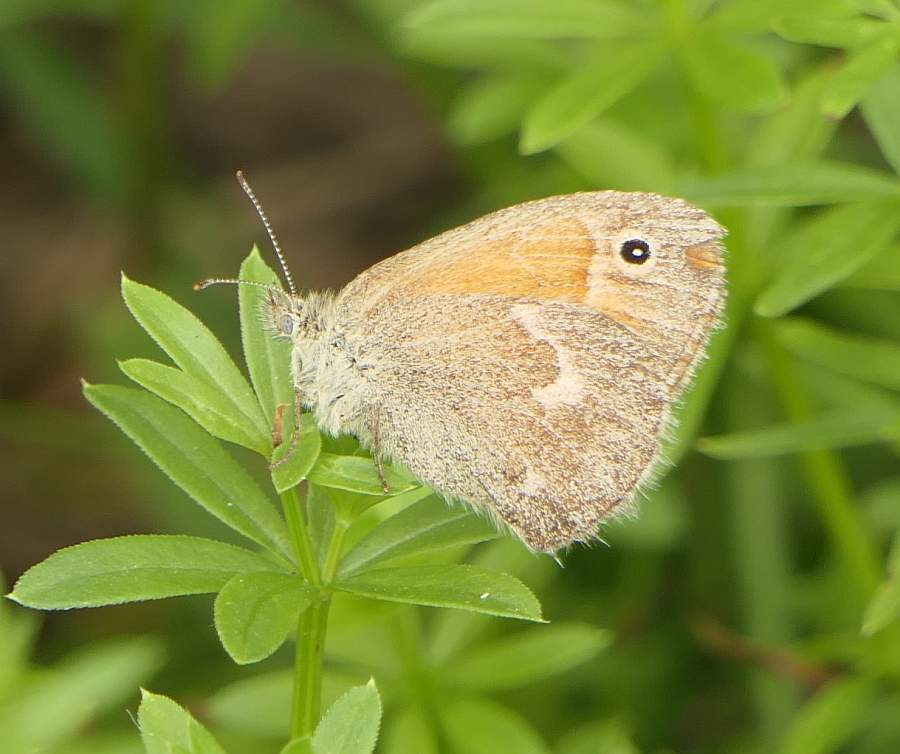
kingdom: Animalia
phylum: Arthropoda
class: Insecta
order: Lepidoptera
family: Nymphalidae
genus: Coenonympha
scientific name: Coenonympha california
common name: Common ringlet
